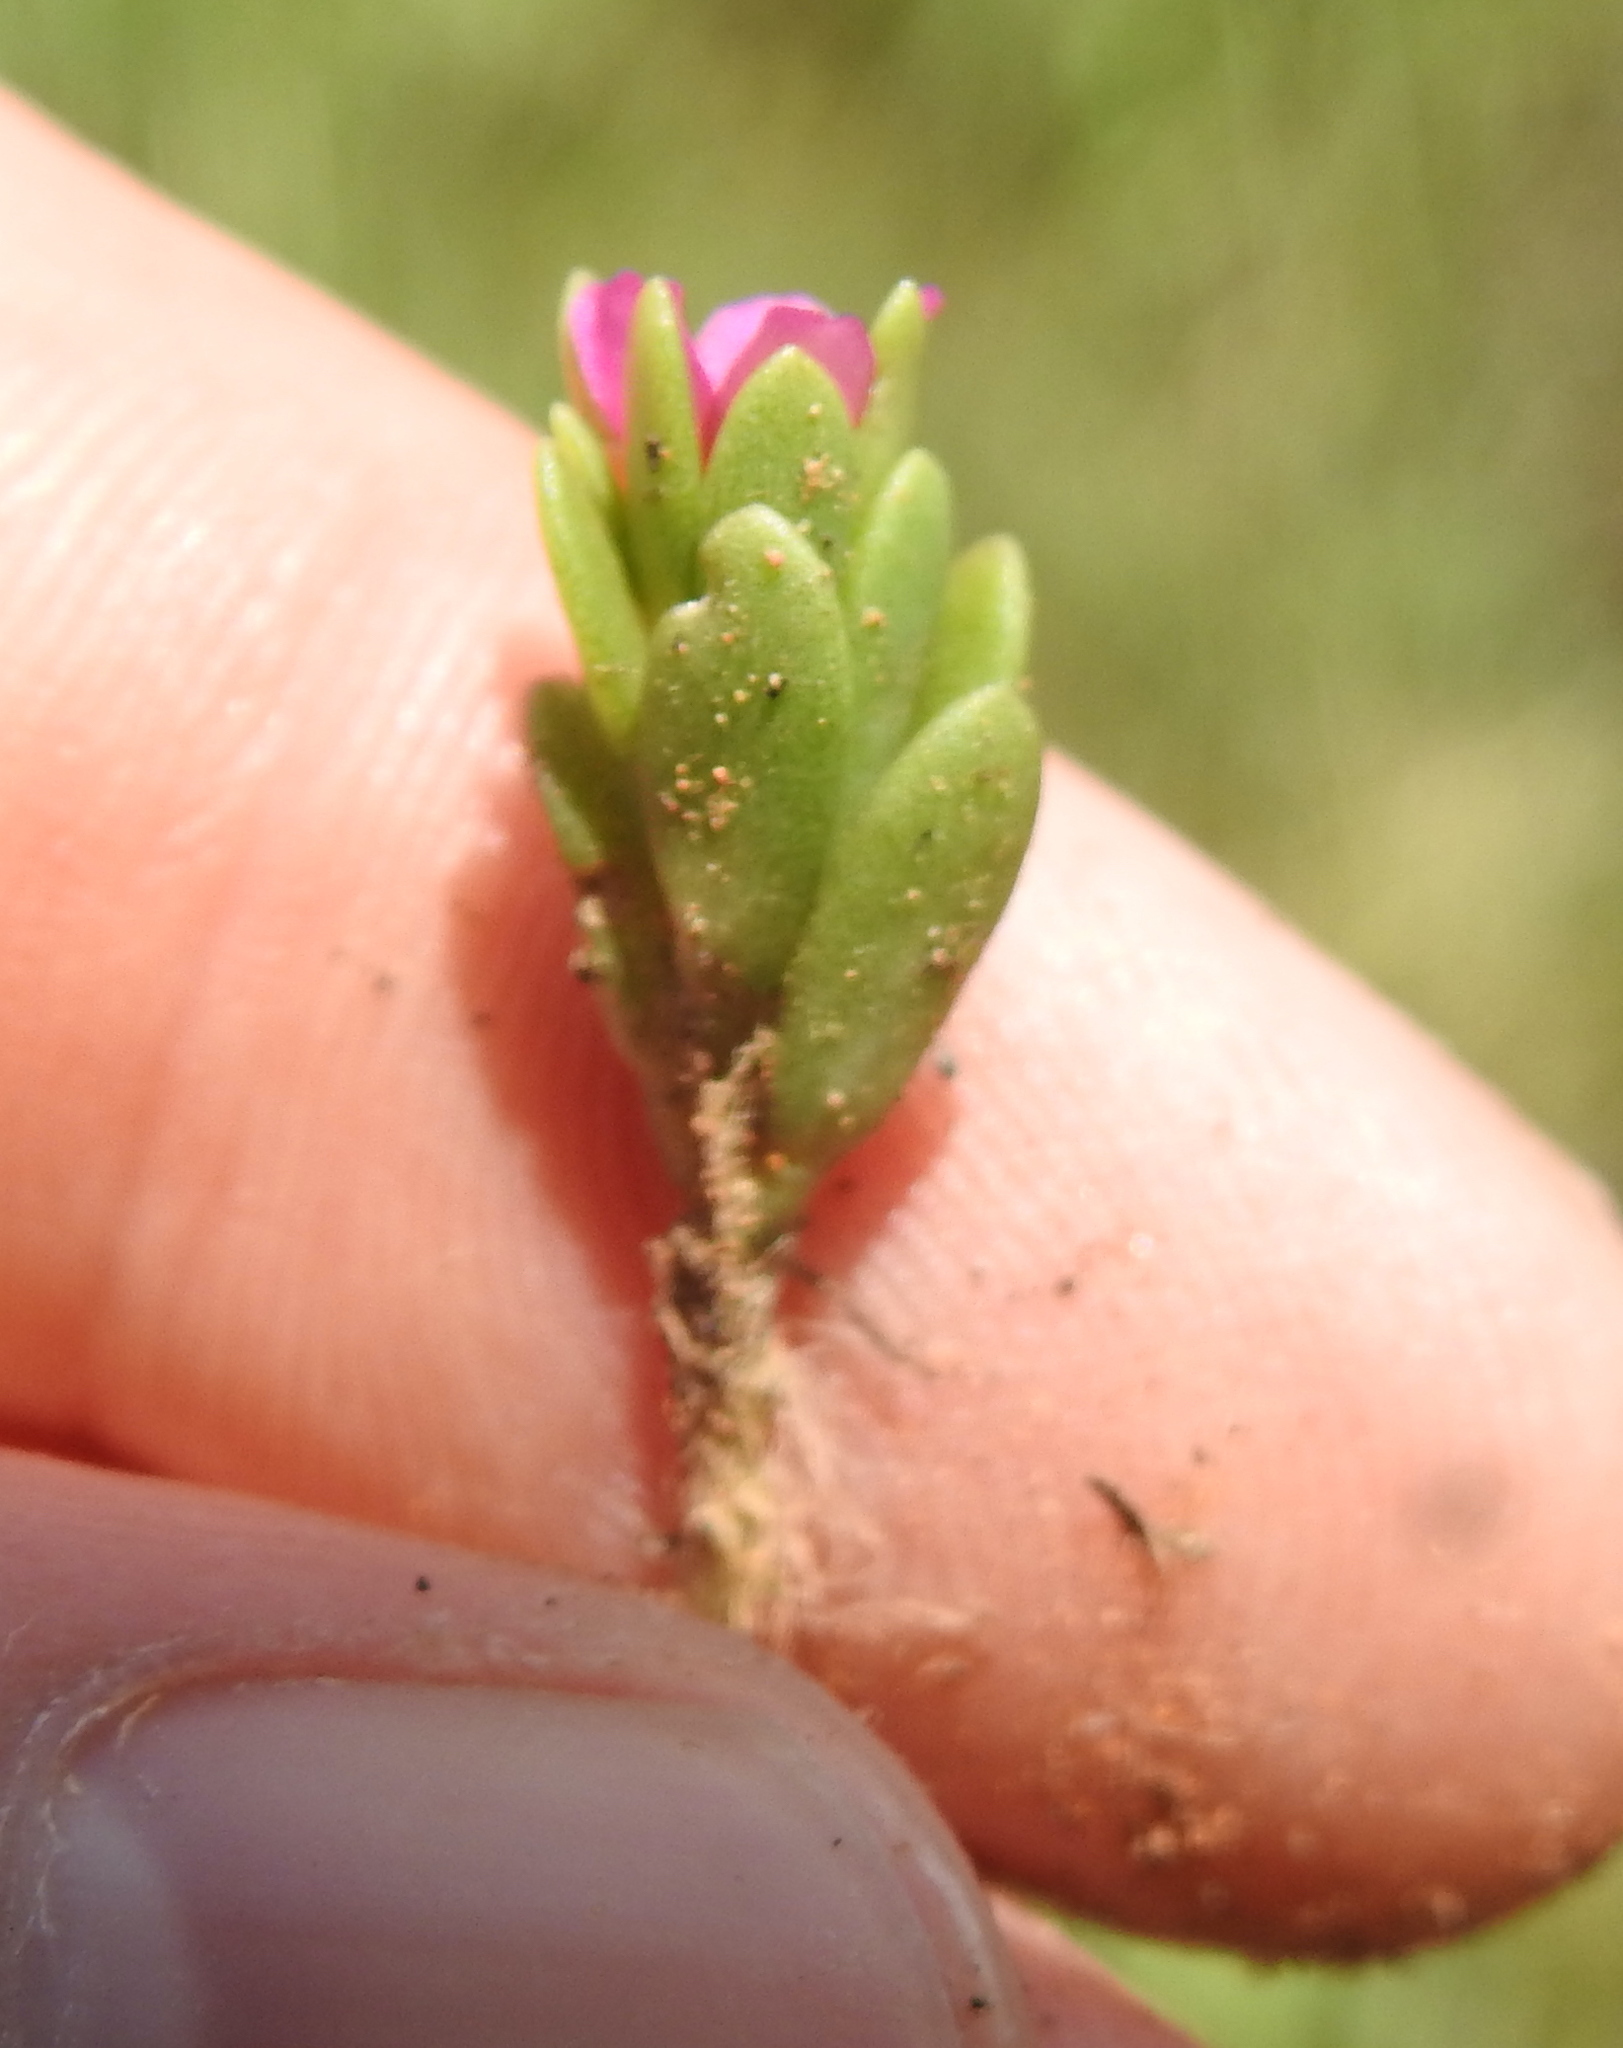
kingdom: Plantae
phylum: Tracheophyta
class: Magnoliopsida
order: Caryophyllales
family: Portulacaceae
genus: Portulaca
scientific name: Portulaca amilis
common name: Paraguayan purslane
